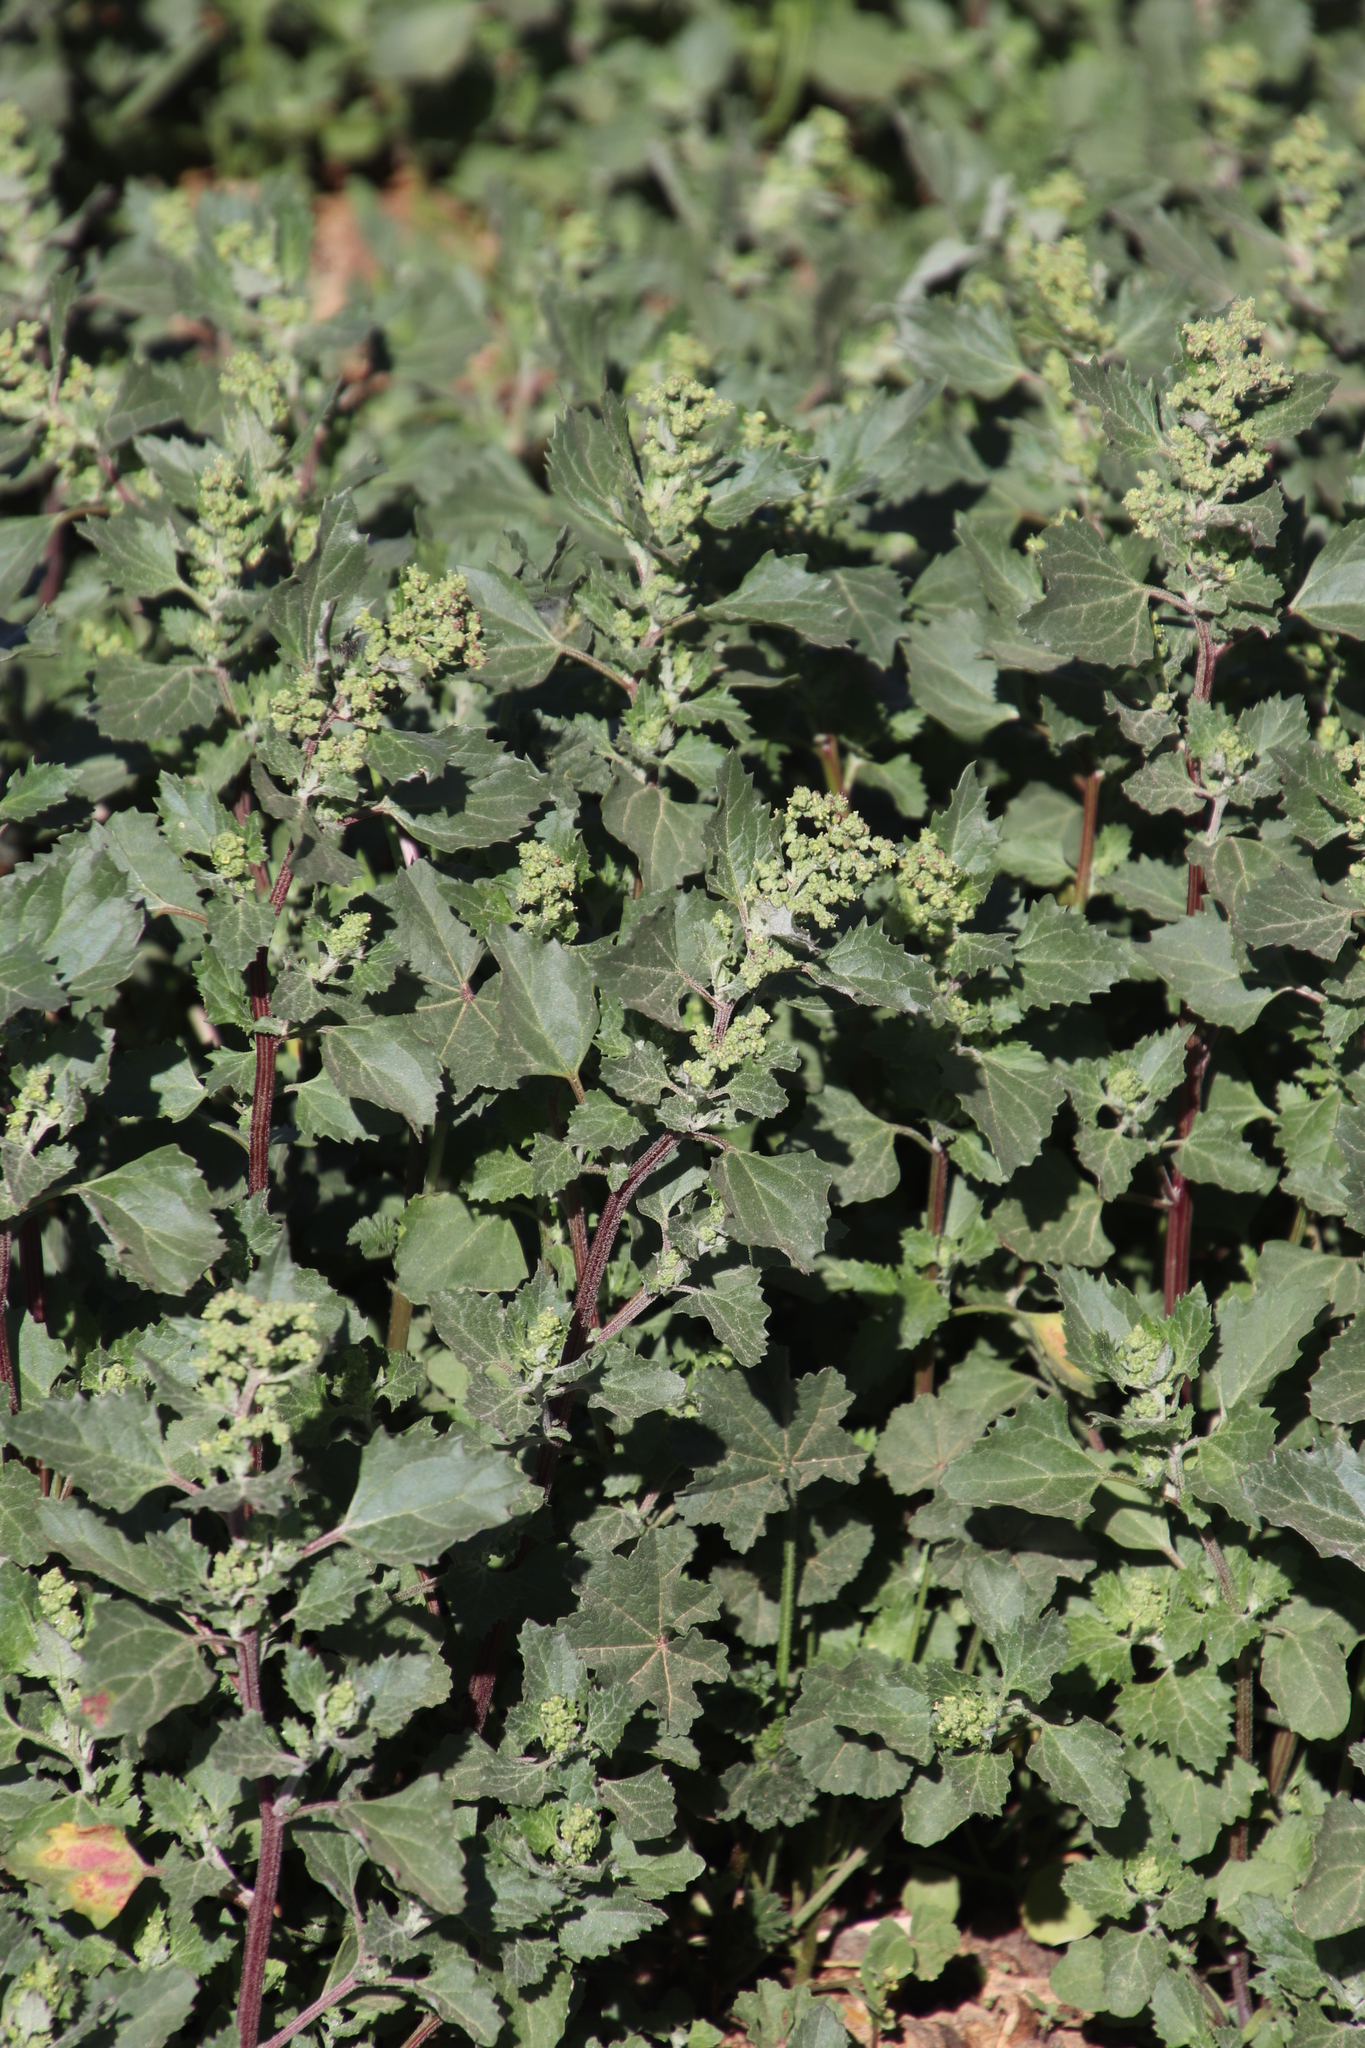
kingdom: Plantae
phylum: Tracheophyta
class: Magnoliopsida
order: Caryophyllales
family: Amaranthaceae
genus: Chenopodiastrum
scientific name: Chenopodiastrum murale
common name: Sowbane
